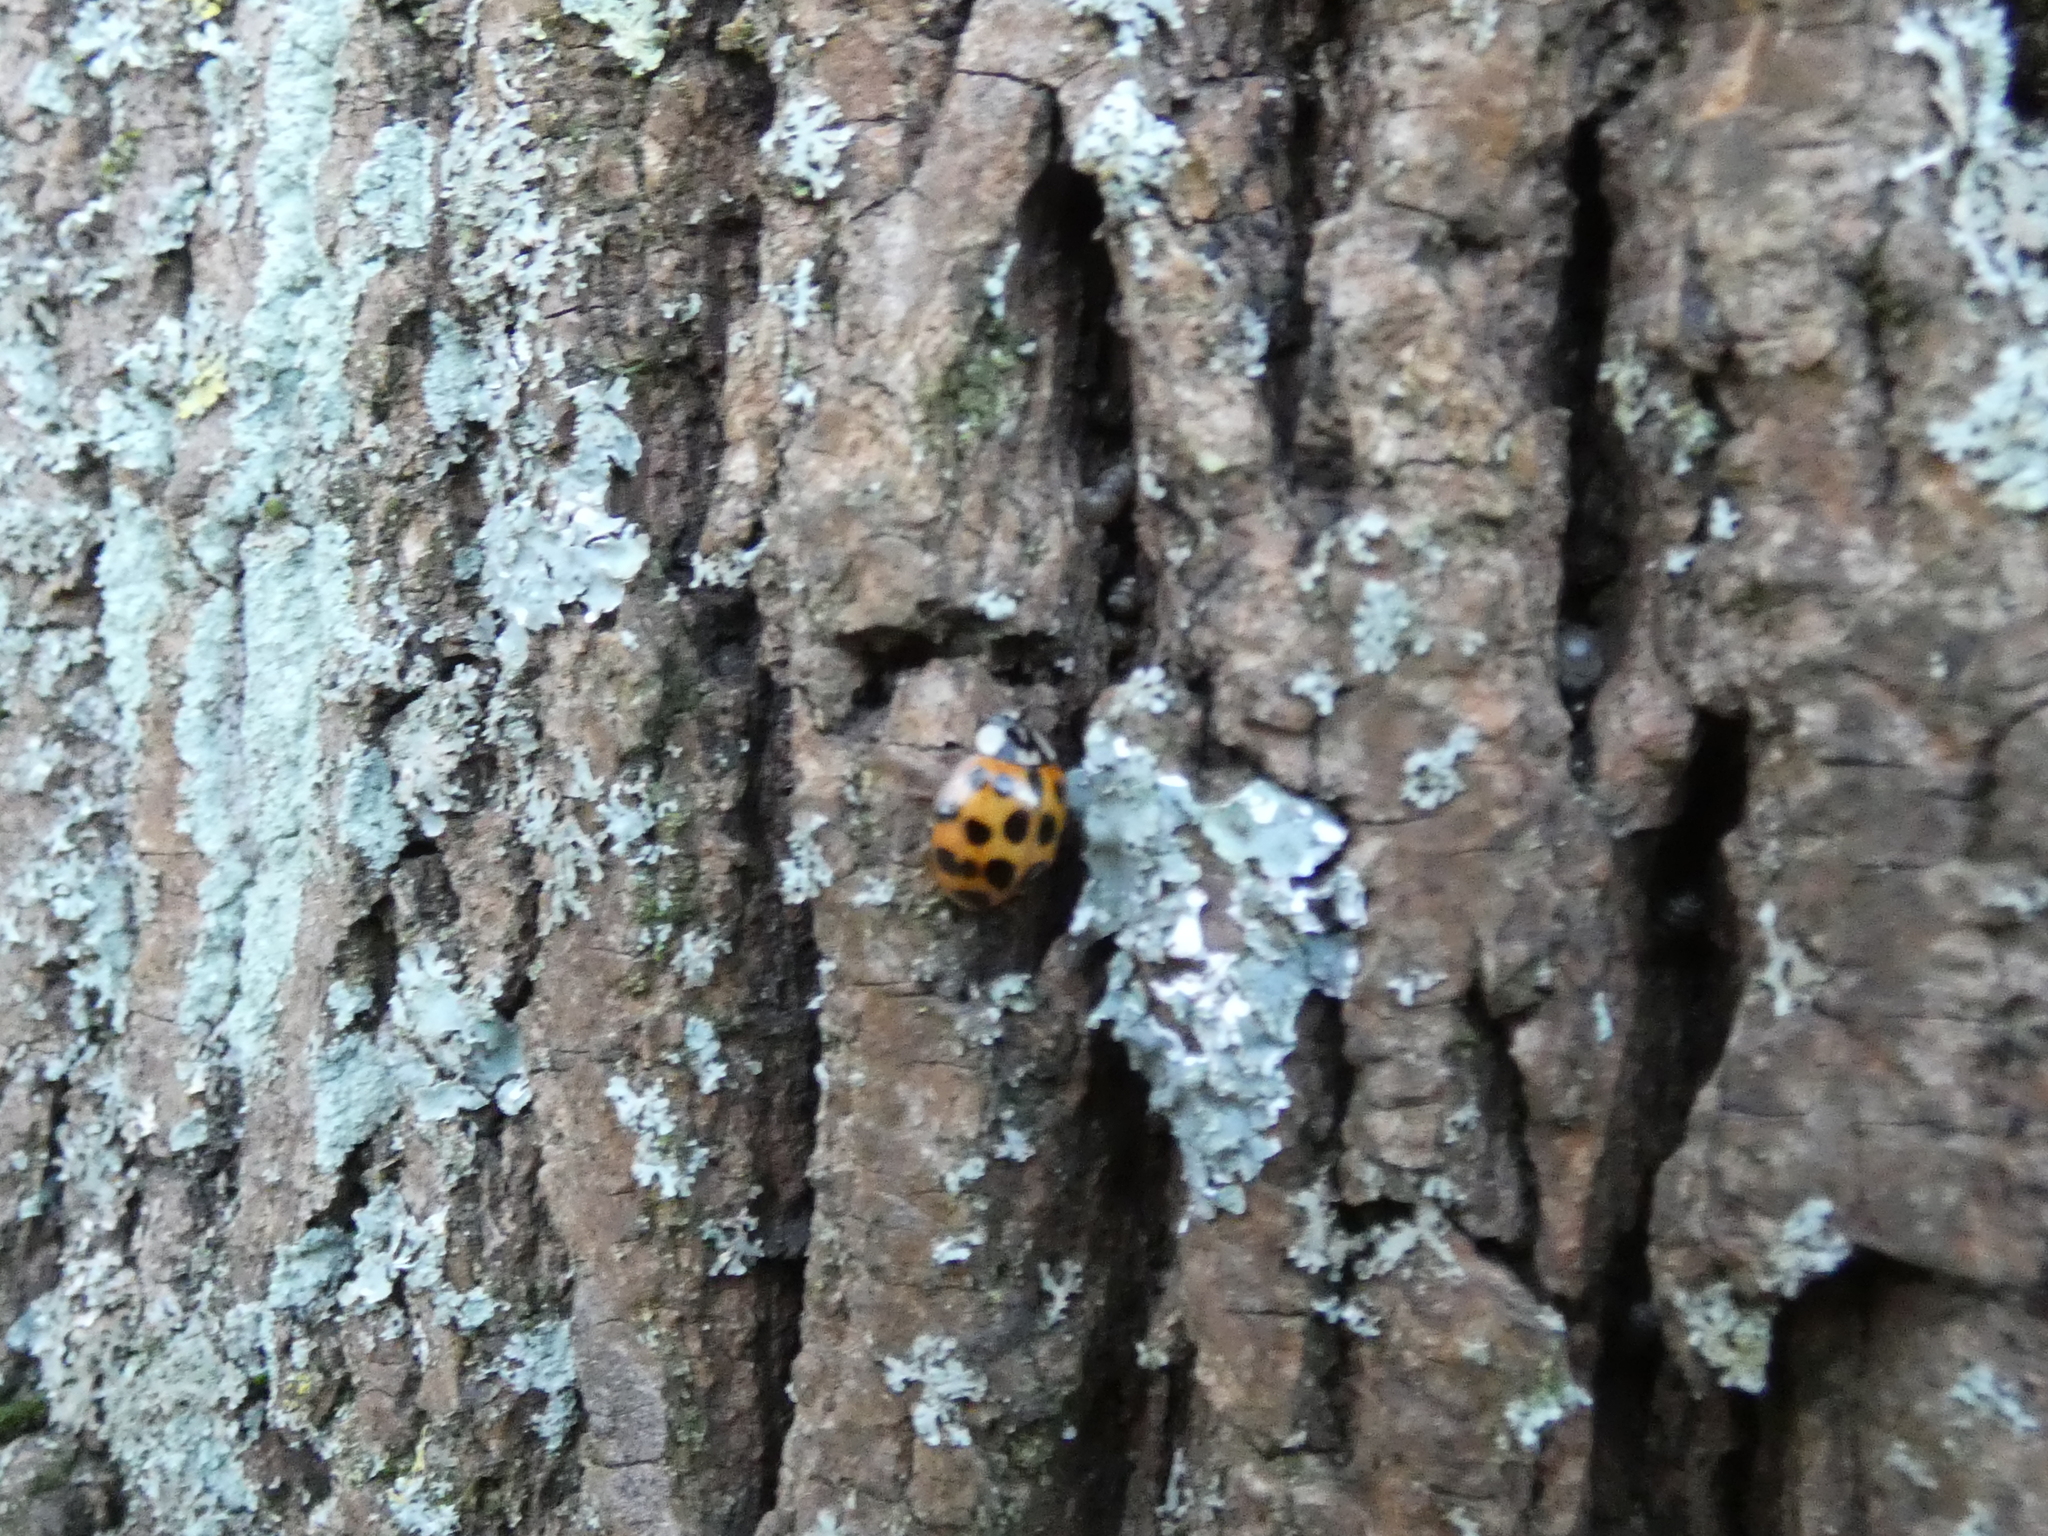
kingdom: Animalia
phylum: Arthropoda
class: Insecta
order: Coleoptera
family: Coccinellidae
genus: Harmonia
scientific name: Harmonia axyridis
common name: Harlequin ladybird
